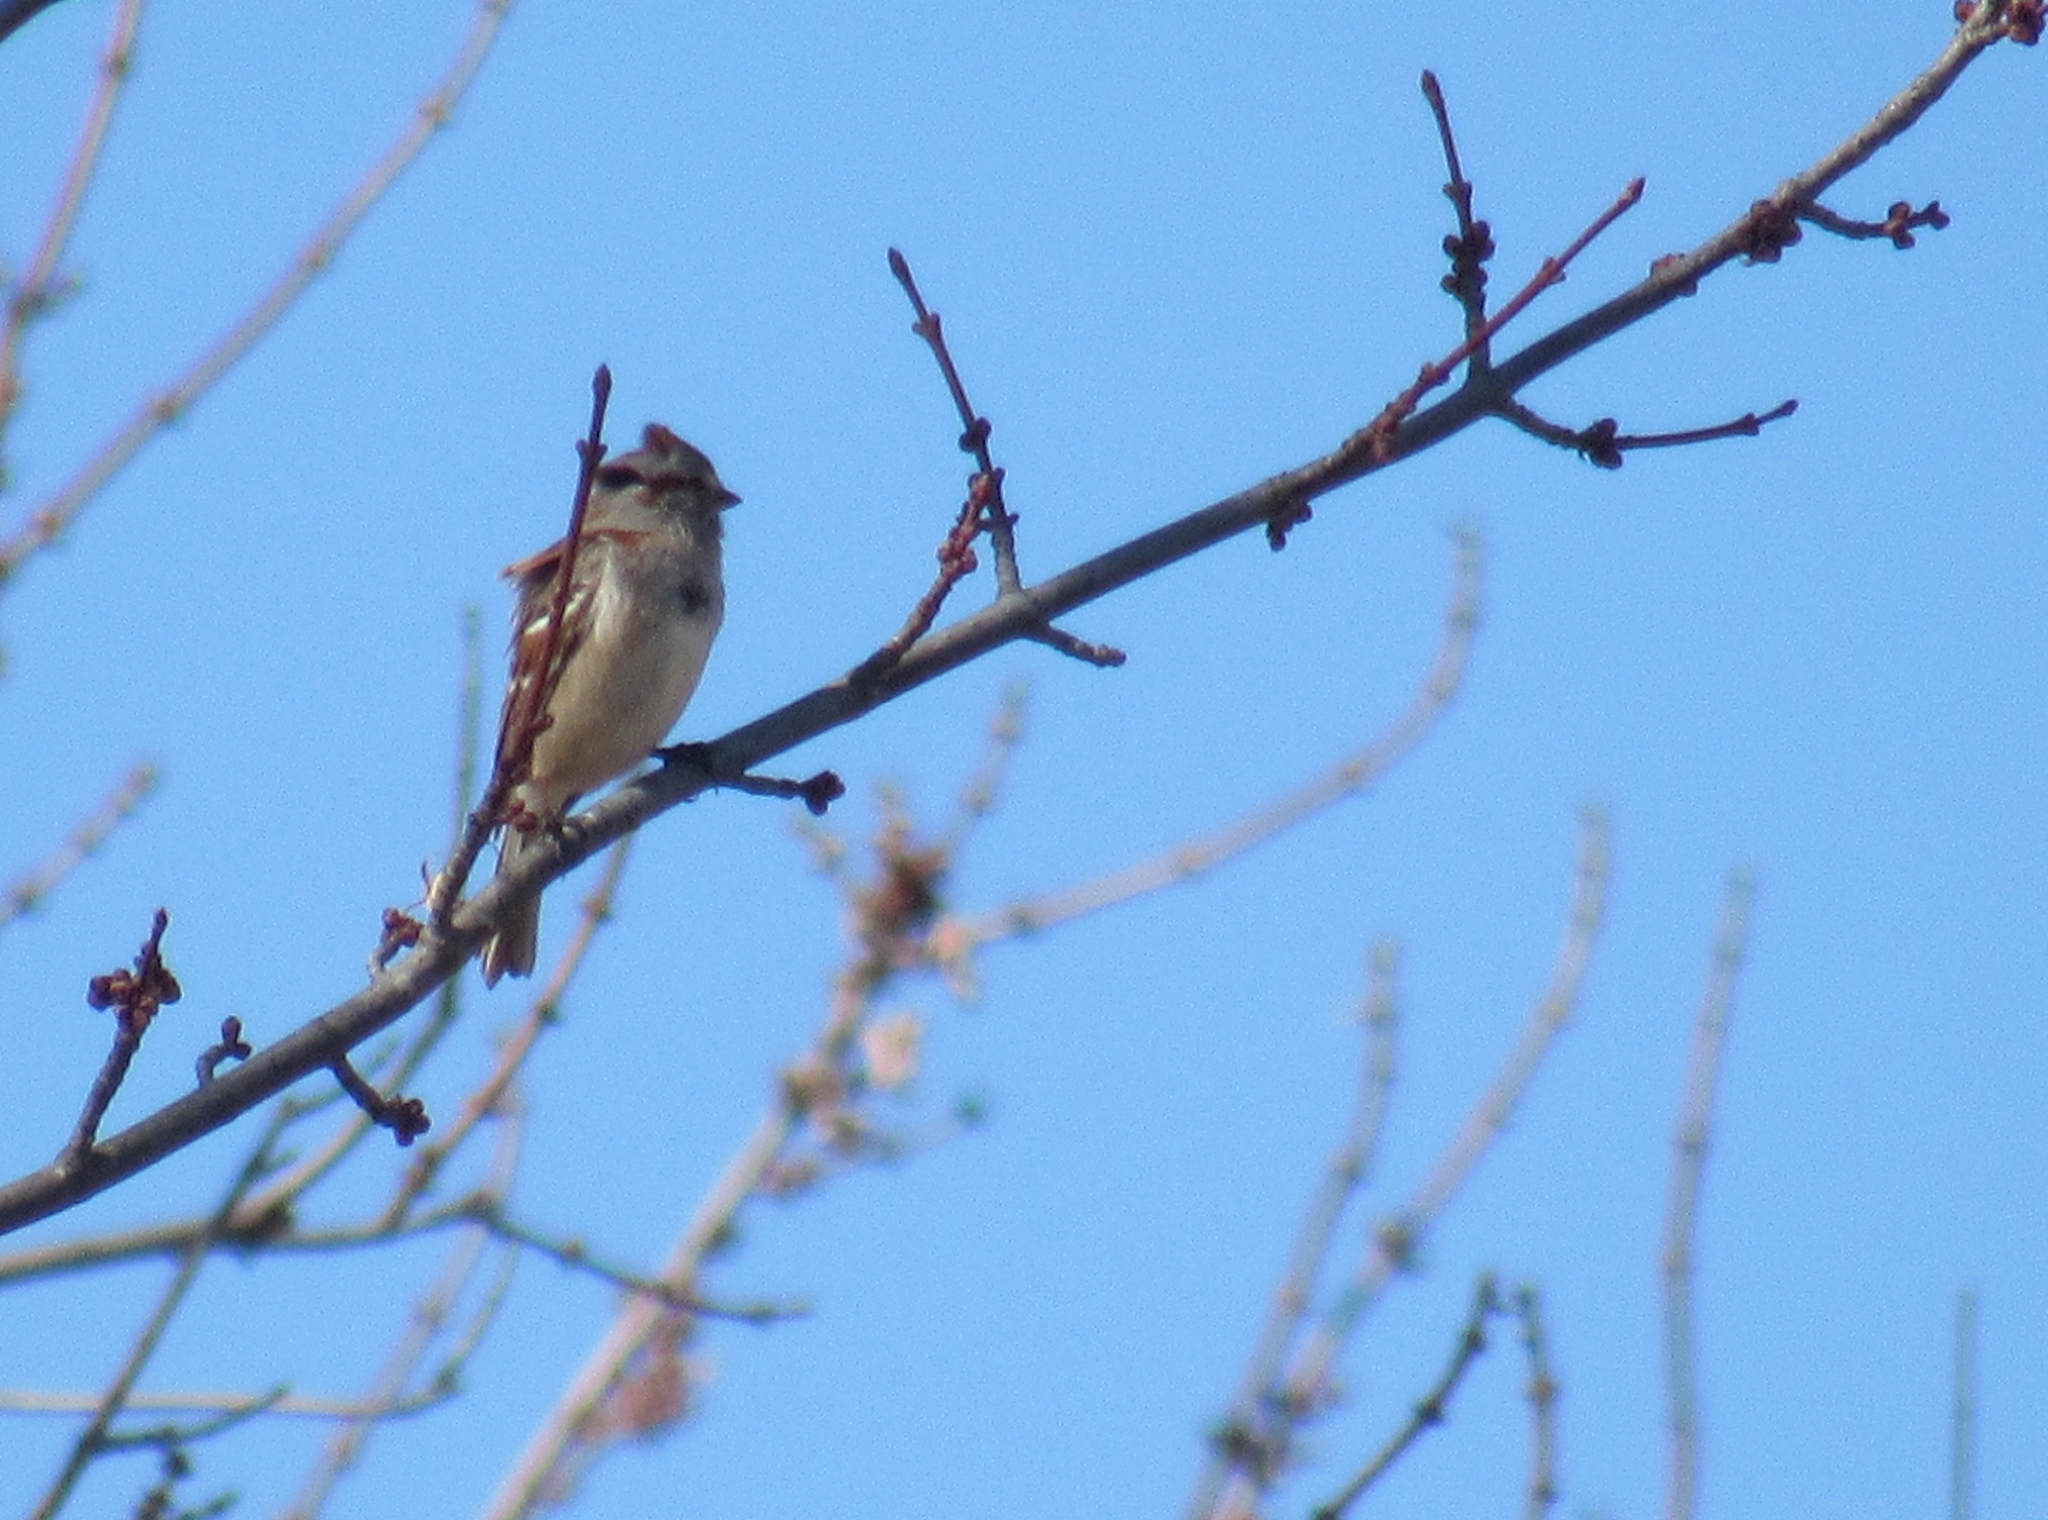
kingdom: Animalia
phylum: Chordata
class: Aves
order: Passeriformes
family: Passerellidae
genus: Spizelloides
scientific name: Spizelloides arborea
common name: American tree sparrow
